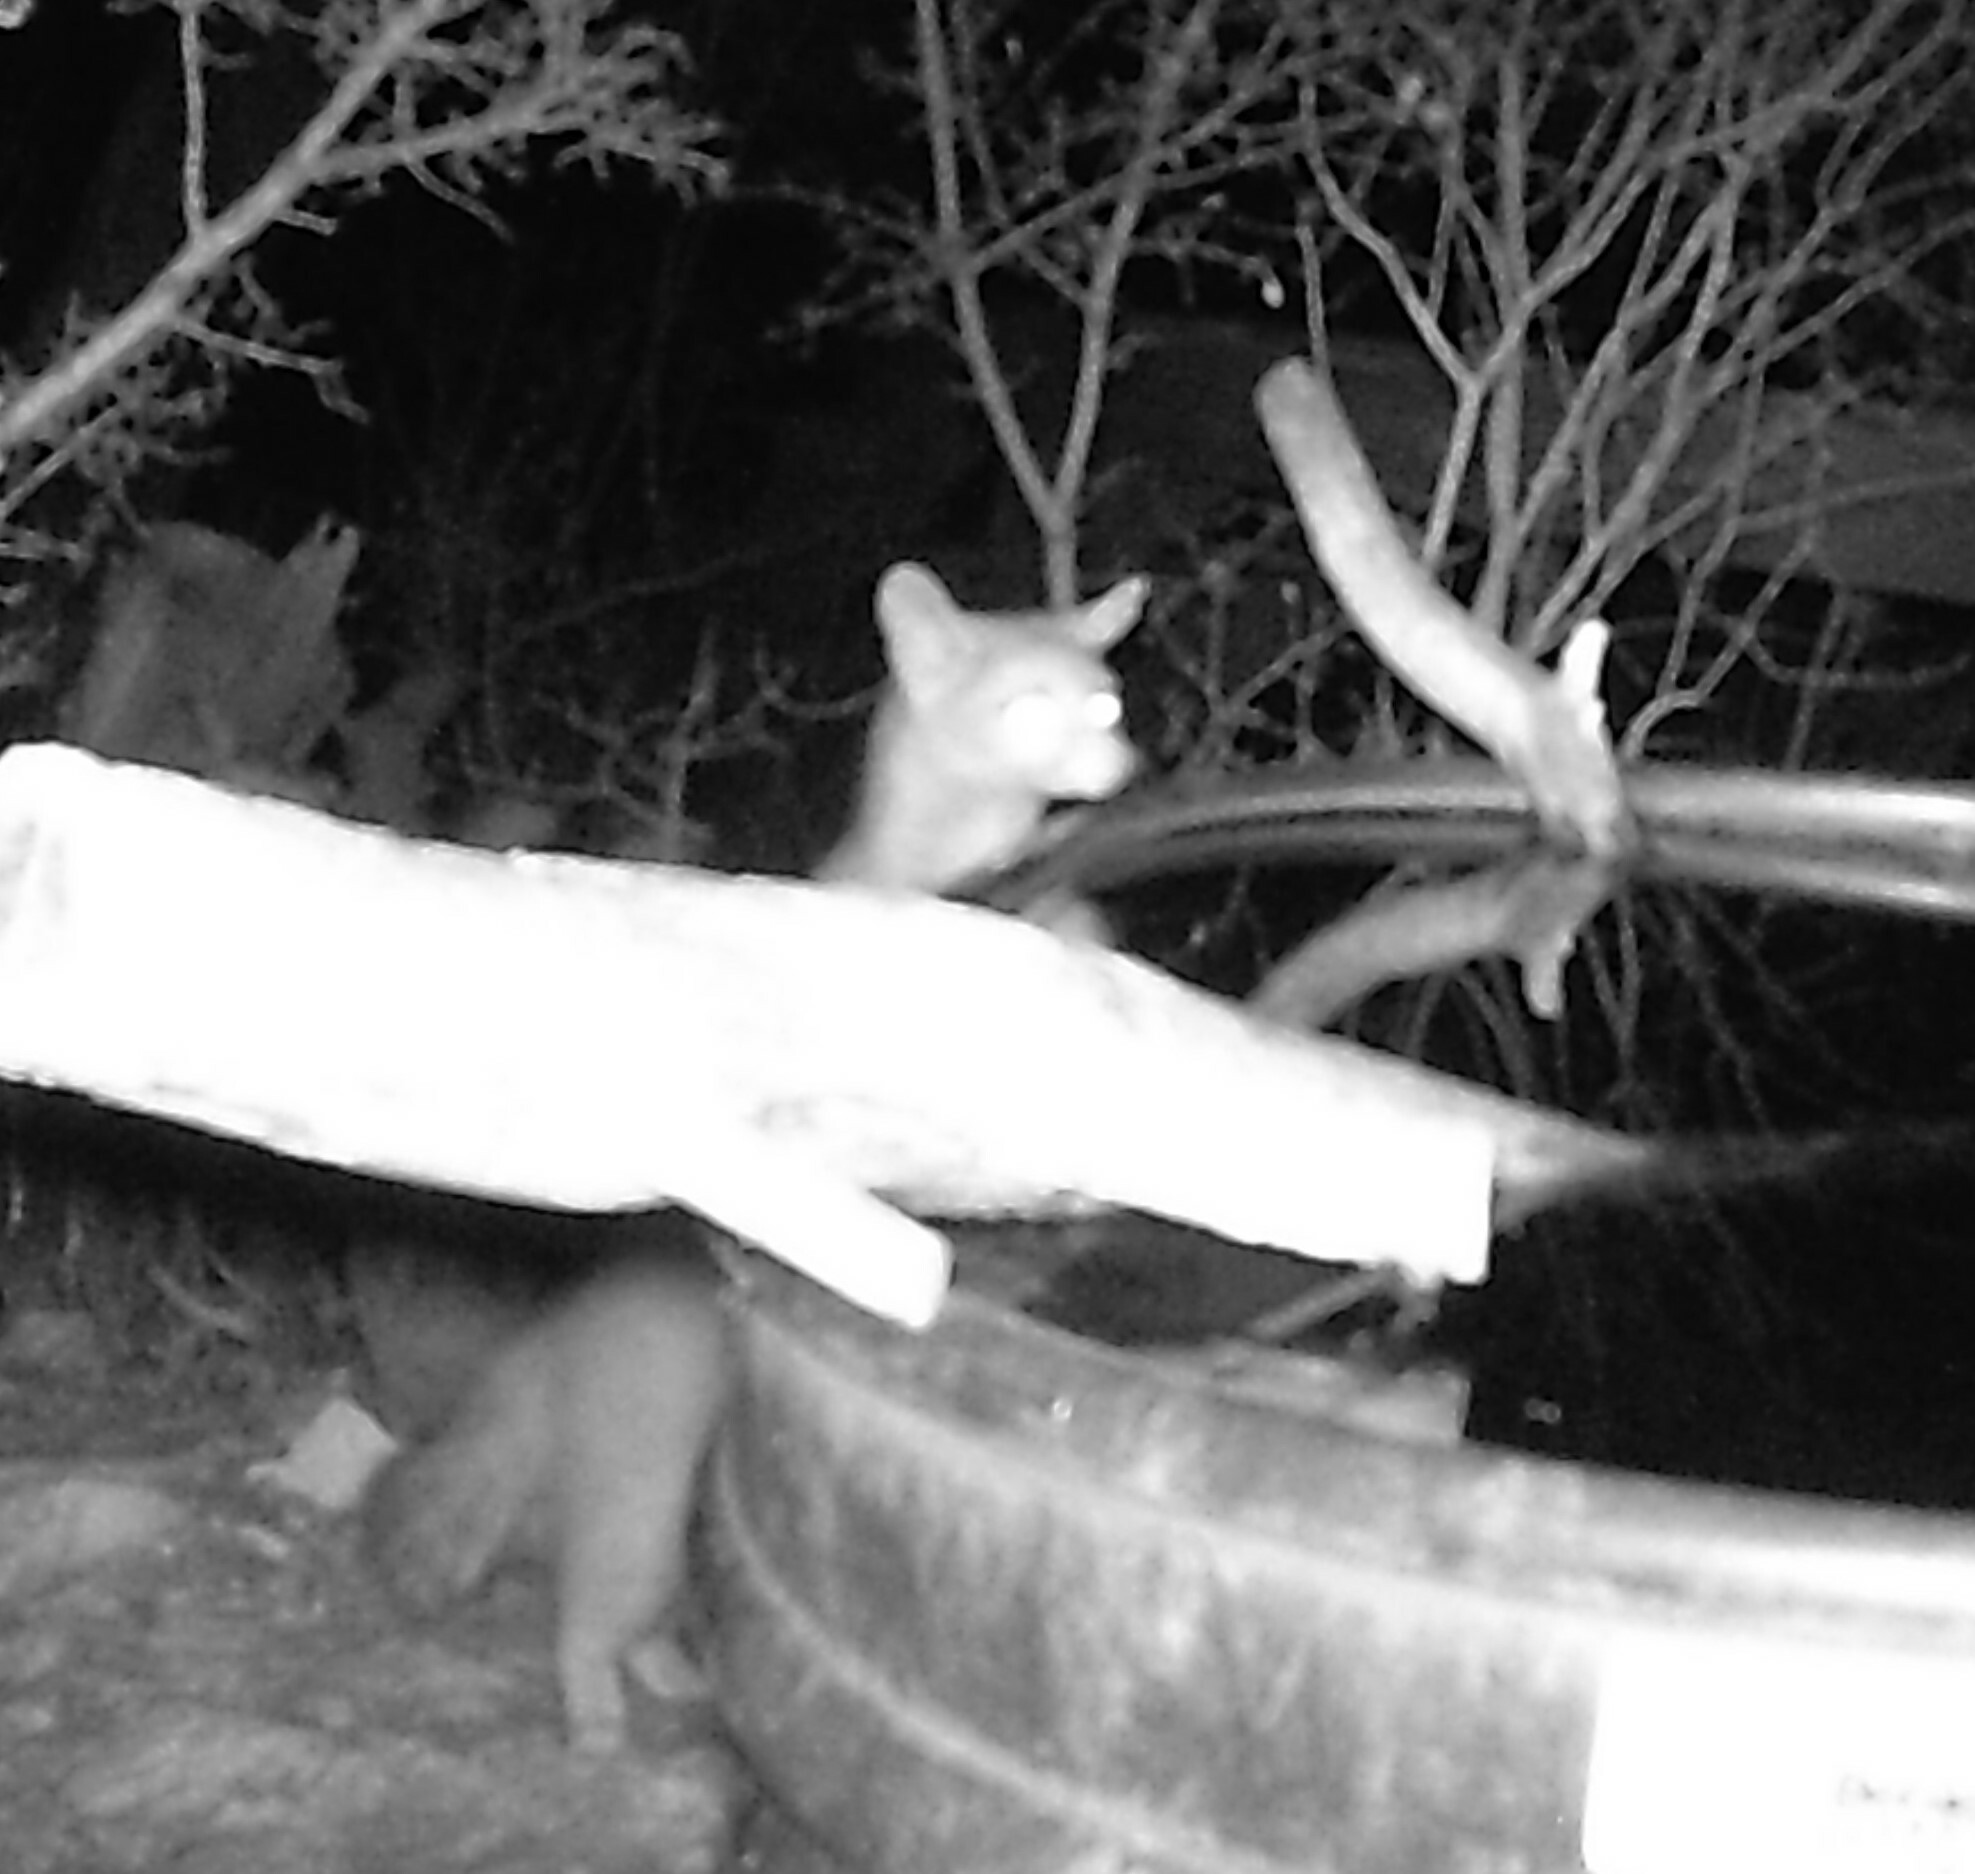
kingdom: Animalia
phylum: Chordata
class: Mammalia
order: Carnivora
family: Procyonidae
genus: Bassariscus
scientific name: Bassariscus astutus
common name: Ringtail
